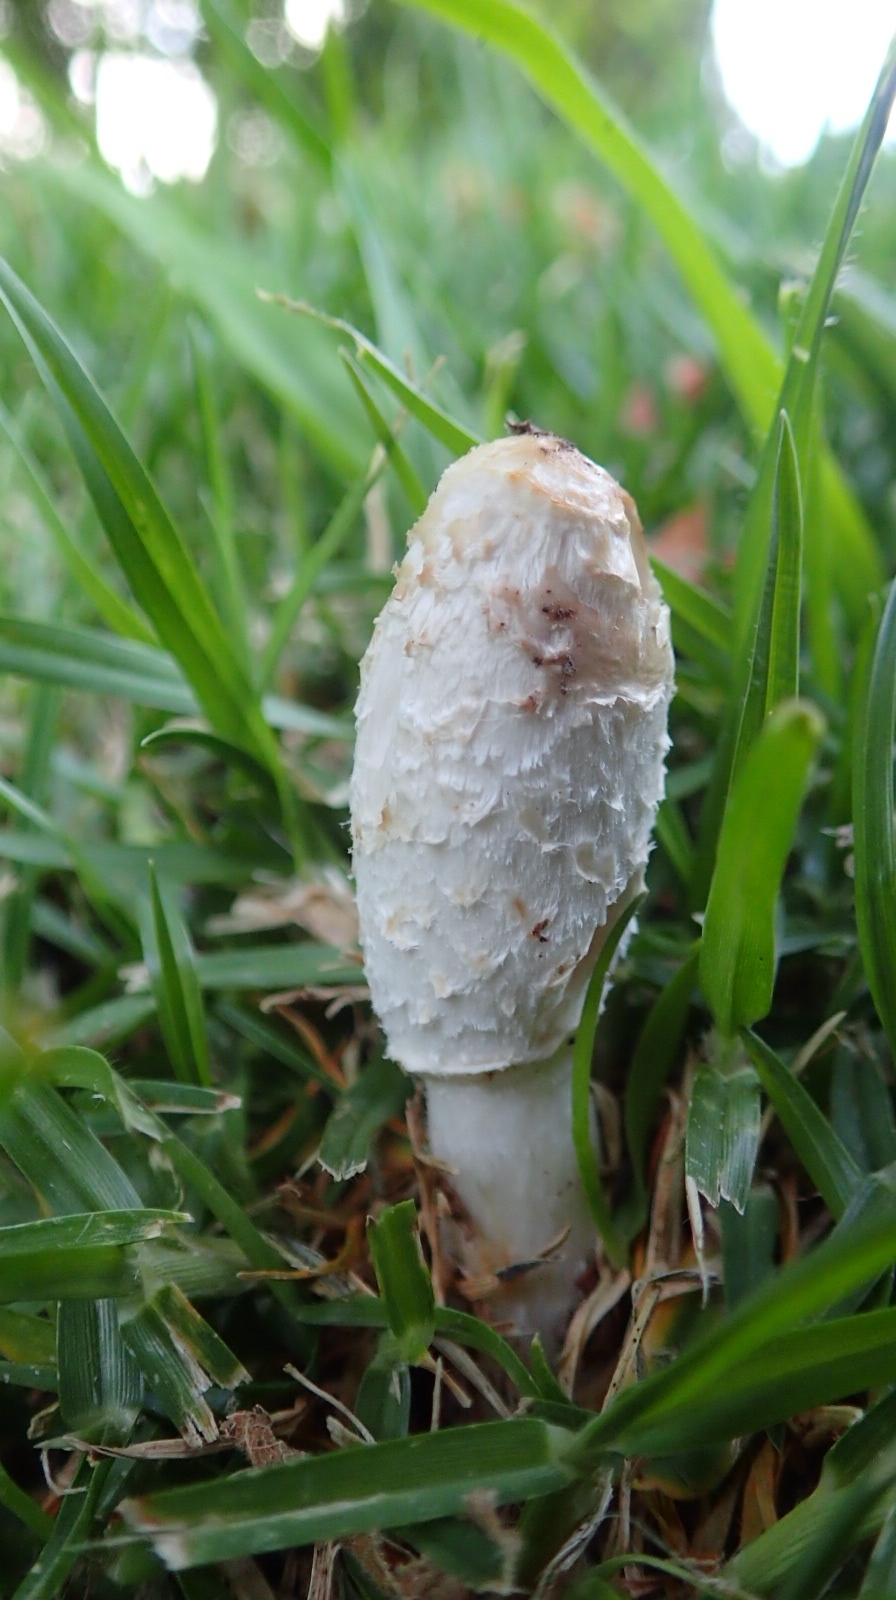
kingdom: Fungi
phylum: Basidiomycota
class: Agaricomycetes
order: Agaricales
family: Agaricaceae
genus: Coprinus
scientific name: Coprinus comatus
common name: Lawyer's wig
